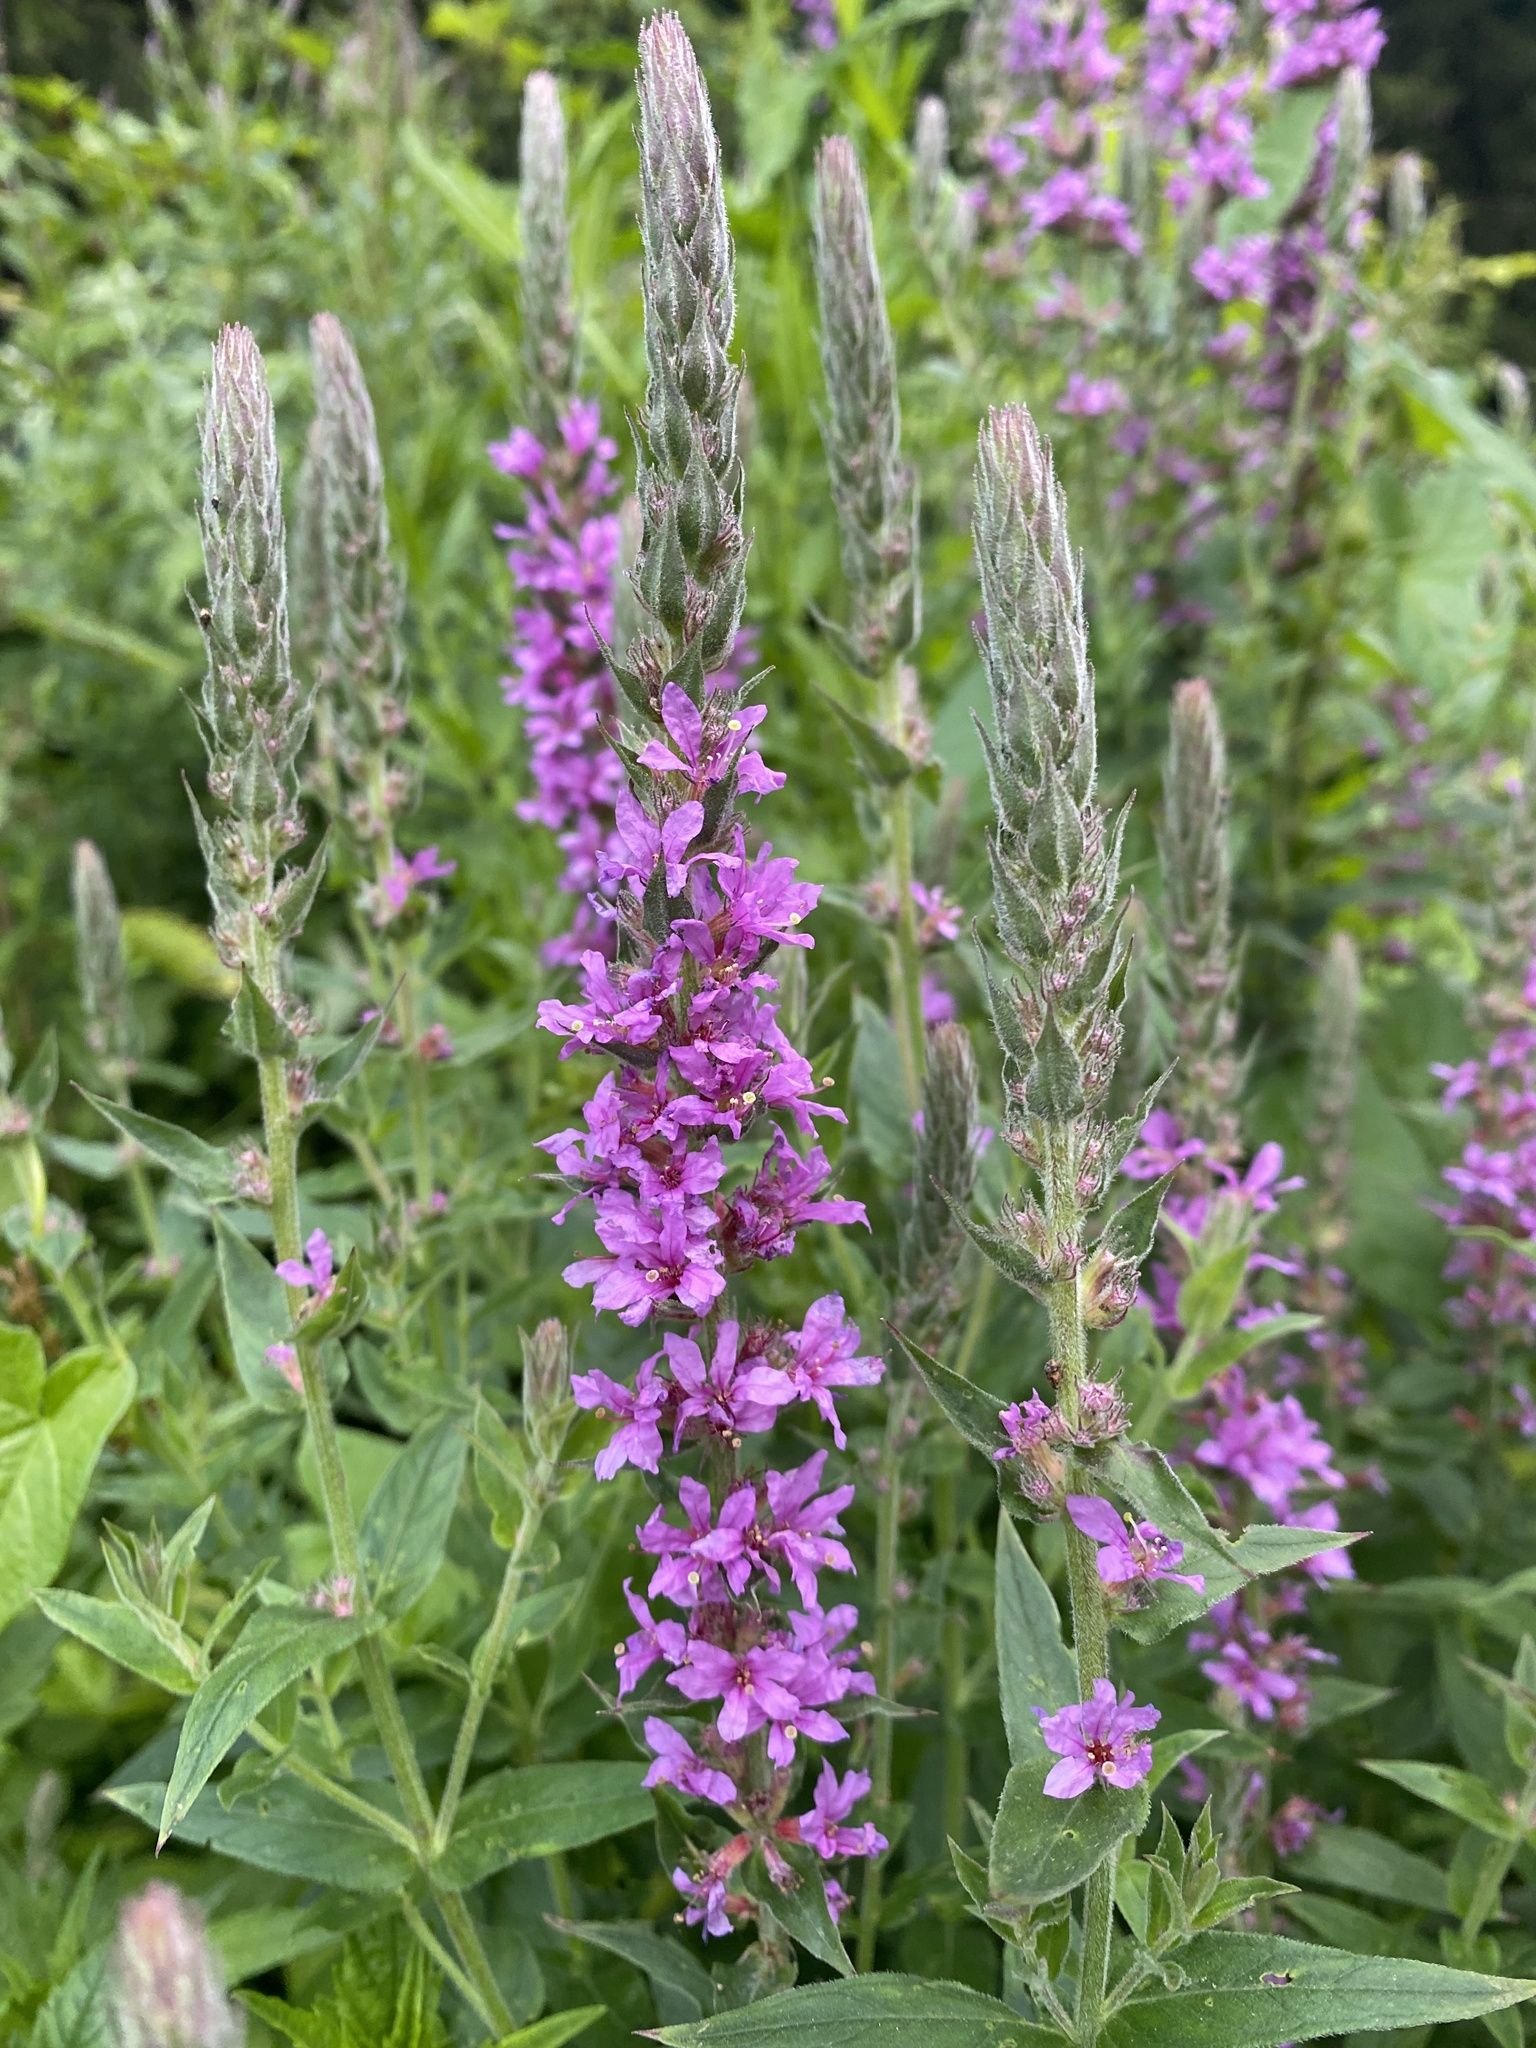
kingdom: Plantae
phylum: Tracheophyta
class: Magnoliopsida
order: Myrtales
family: Lythraceae
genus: Lythrum
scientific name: Lythrum salicaria
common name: Purple loosestrife
